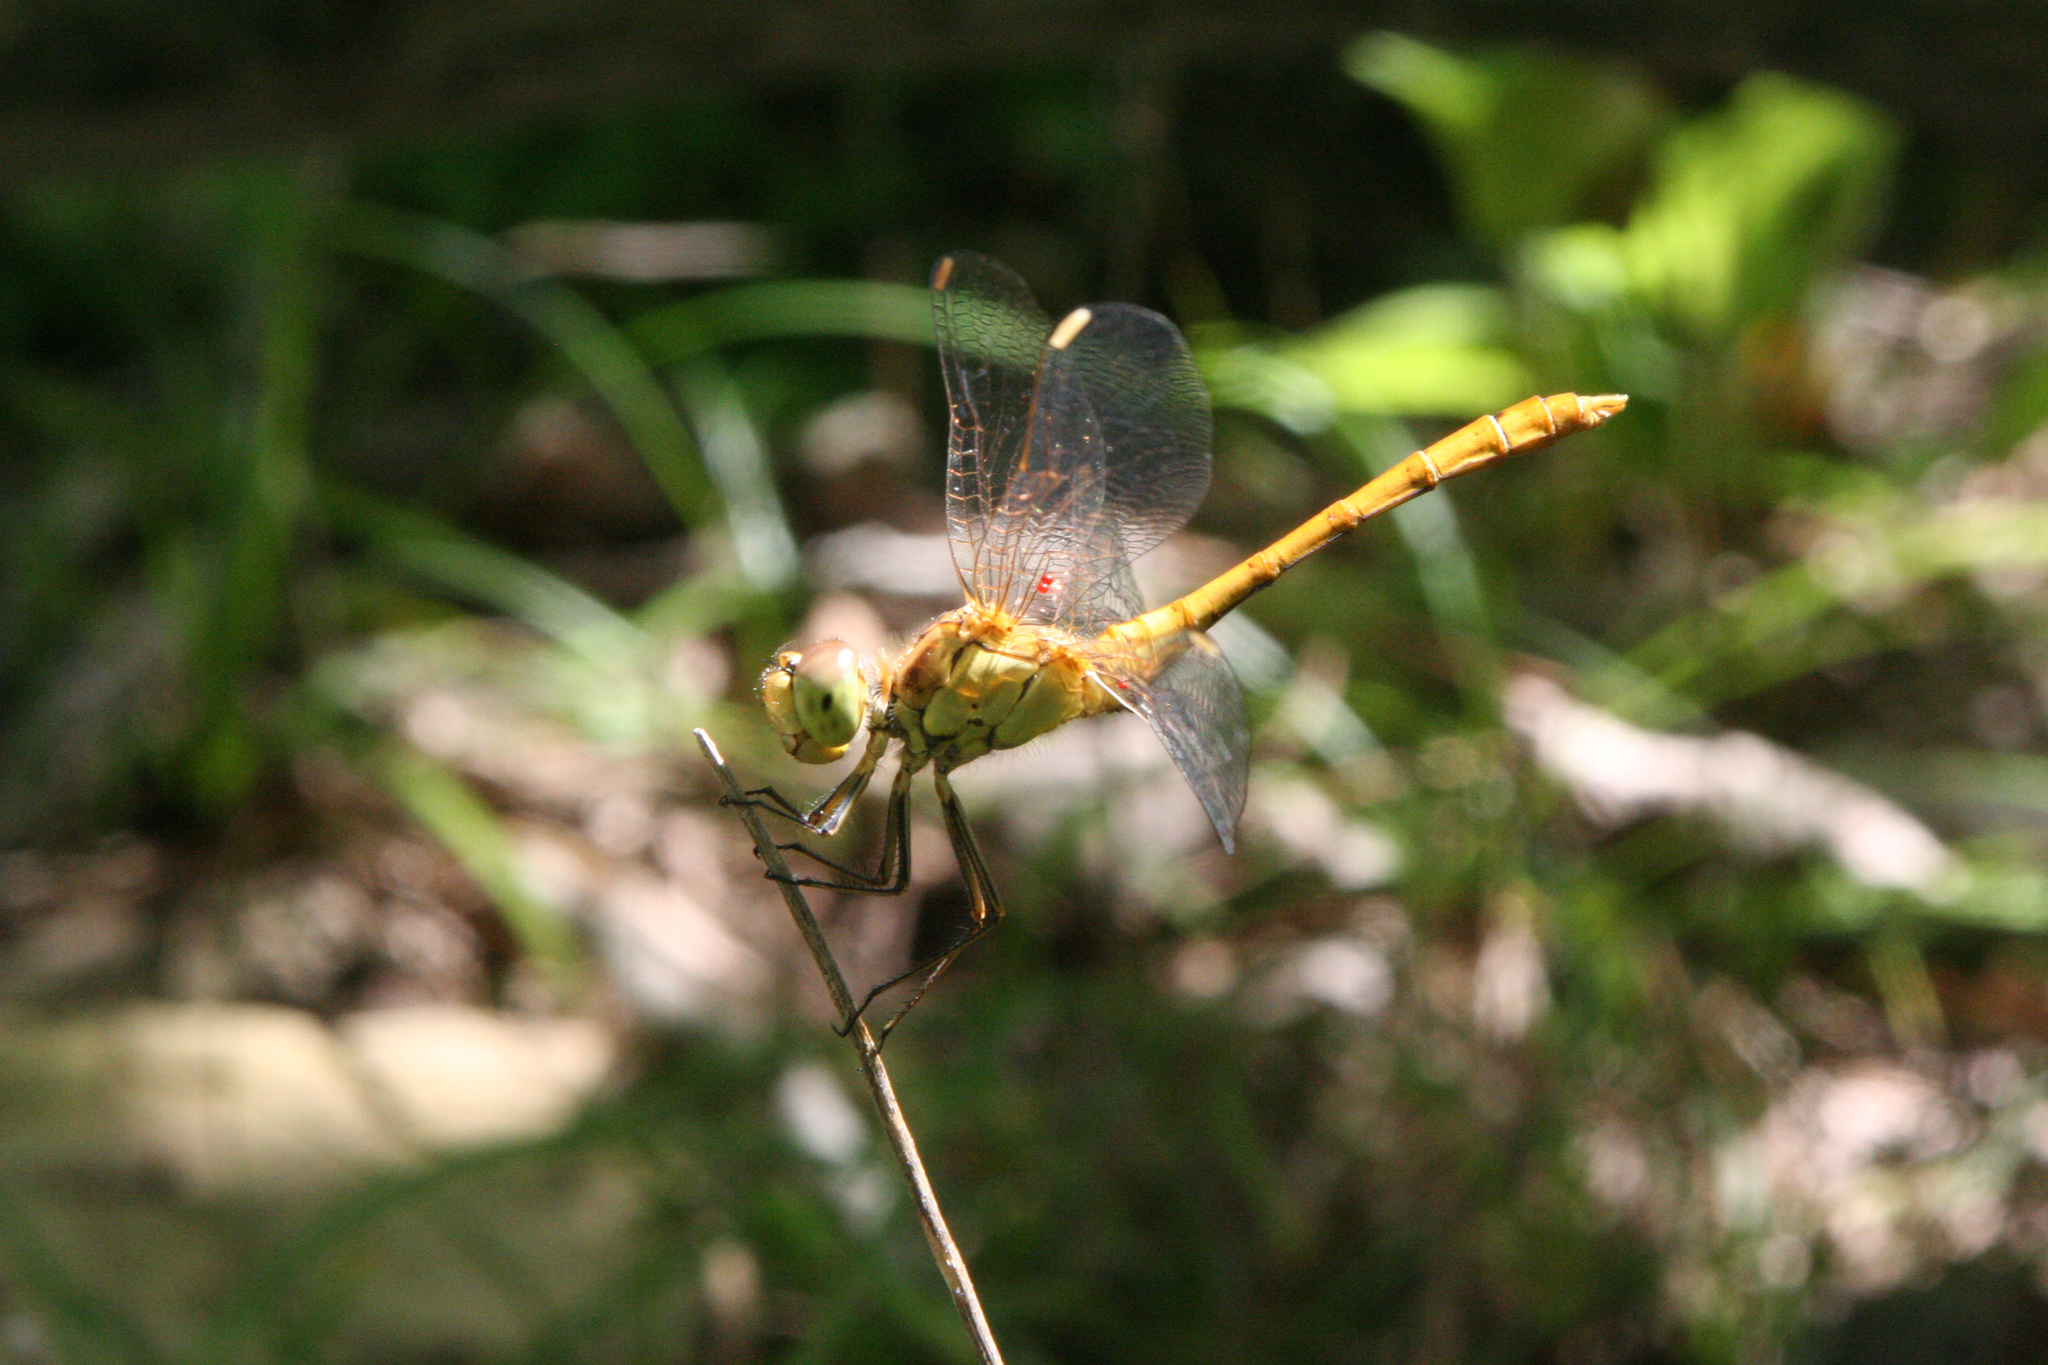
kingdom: Animalia
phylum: Arthropoda
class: Insecta
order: Odonata
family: Libellulidae
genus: Sympetrum
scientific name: Sympetrum meridionale
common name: Southern darter
